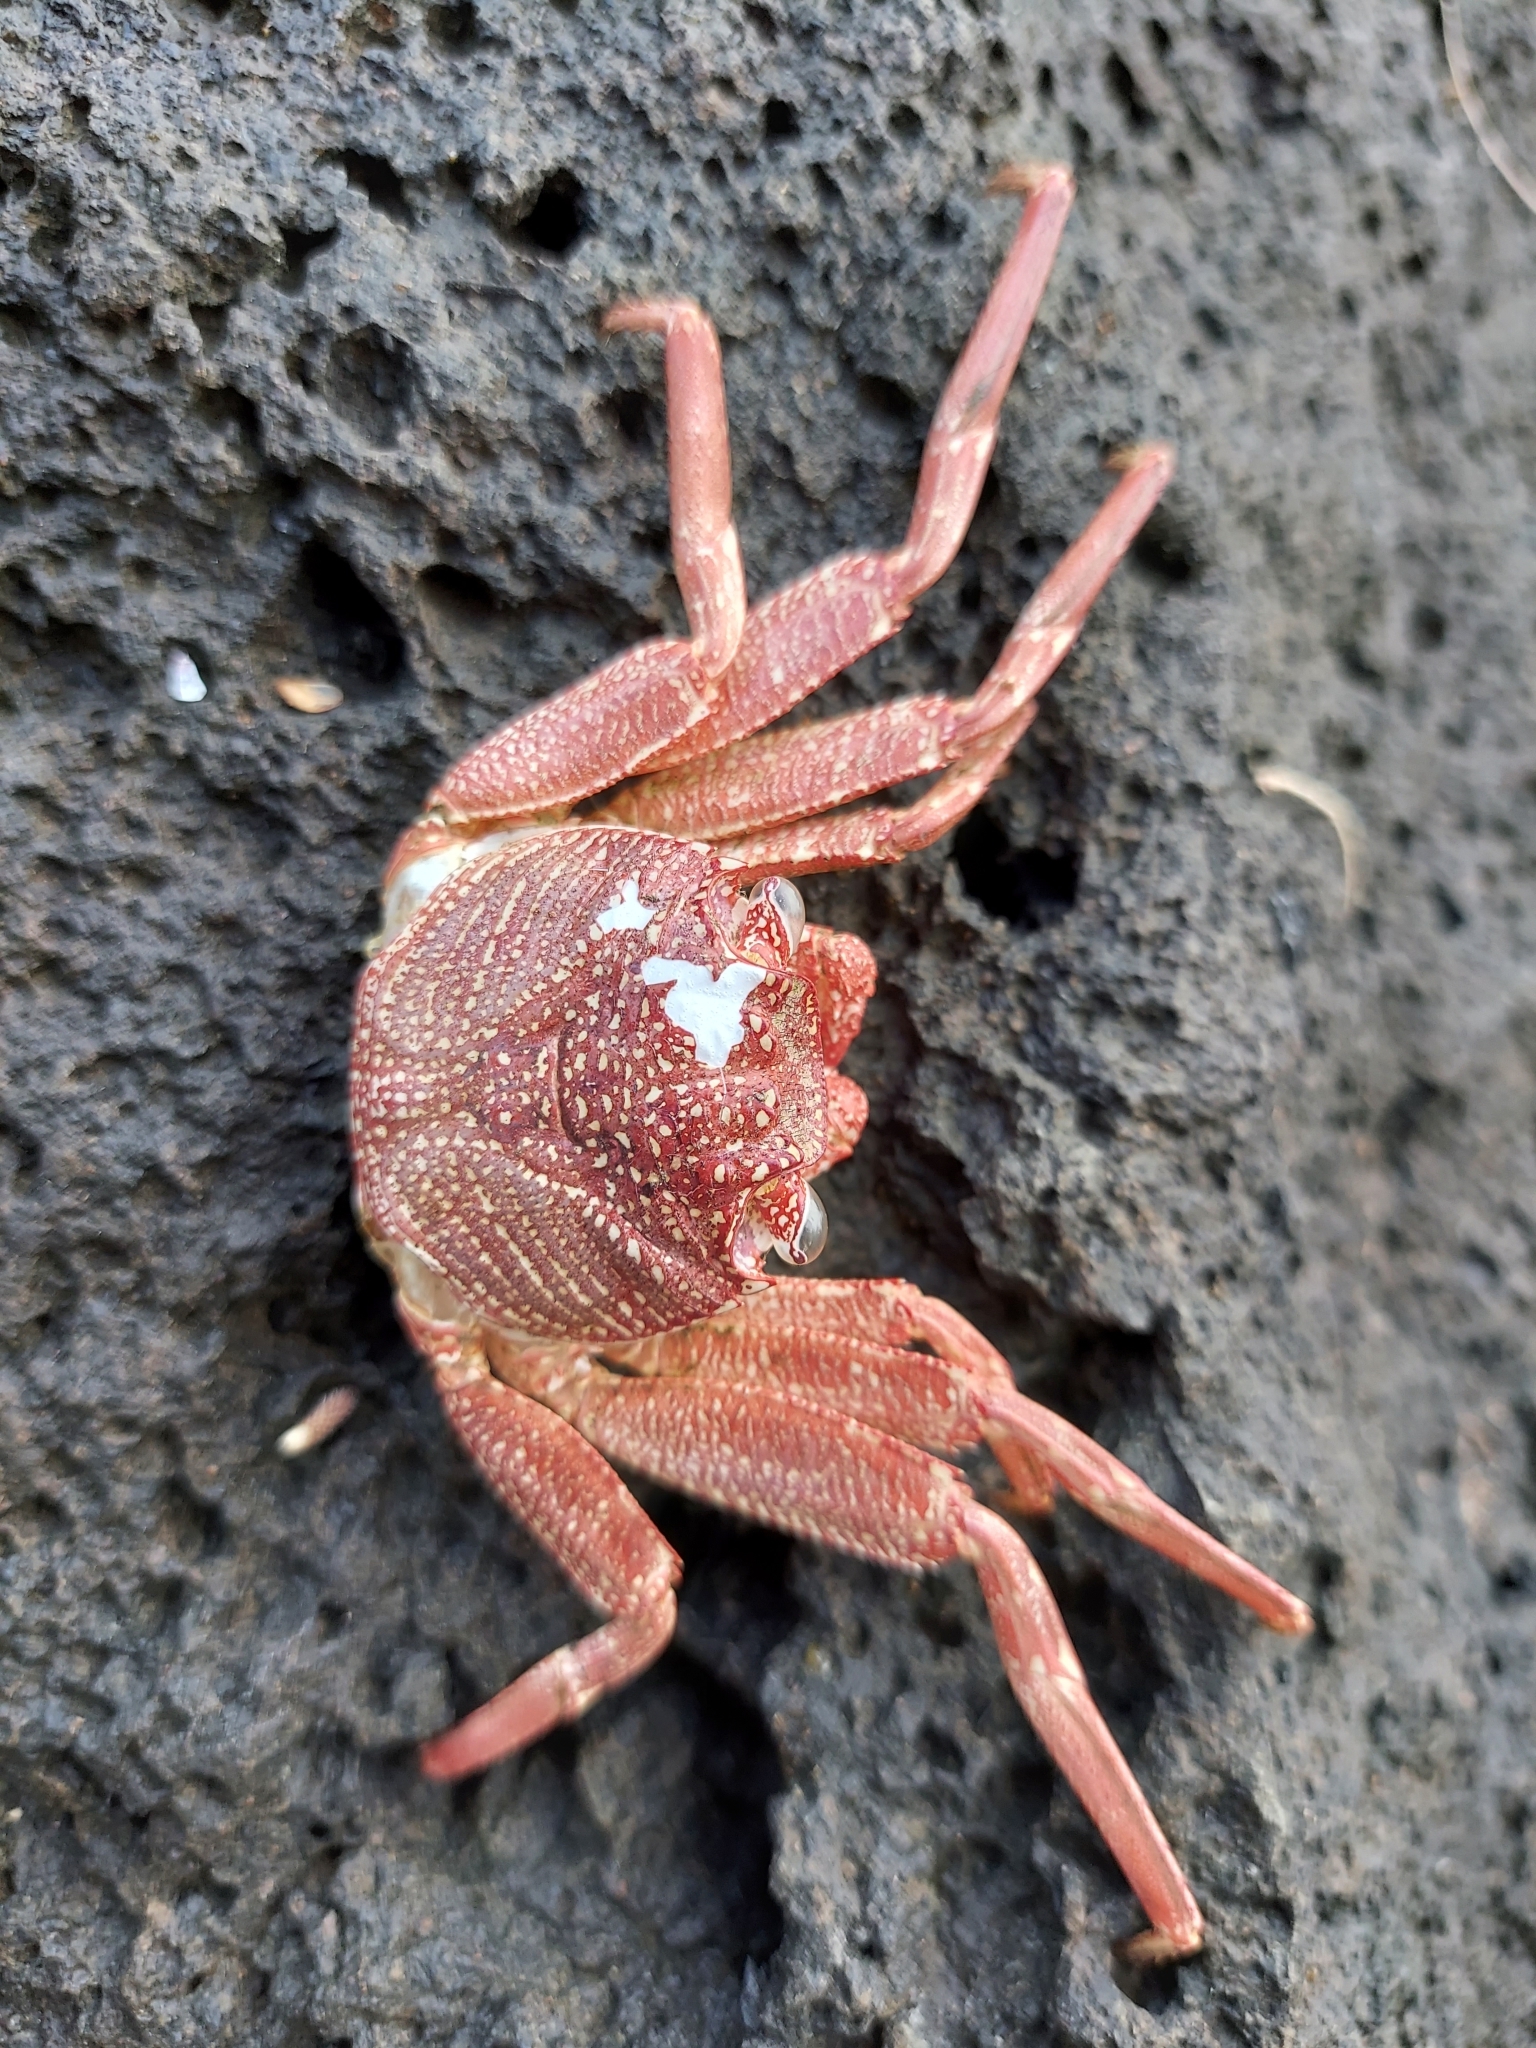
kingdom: Animalia
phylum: Arthropoda
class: Malacostraca
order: Decapoda
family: Grapsidae
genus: Grapsus
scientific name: Grapsus tenuicrustatus
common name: Natal lightfoot crab
